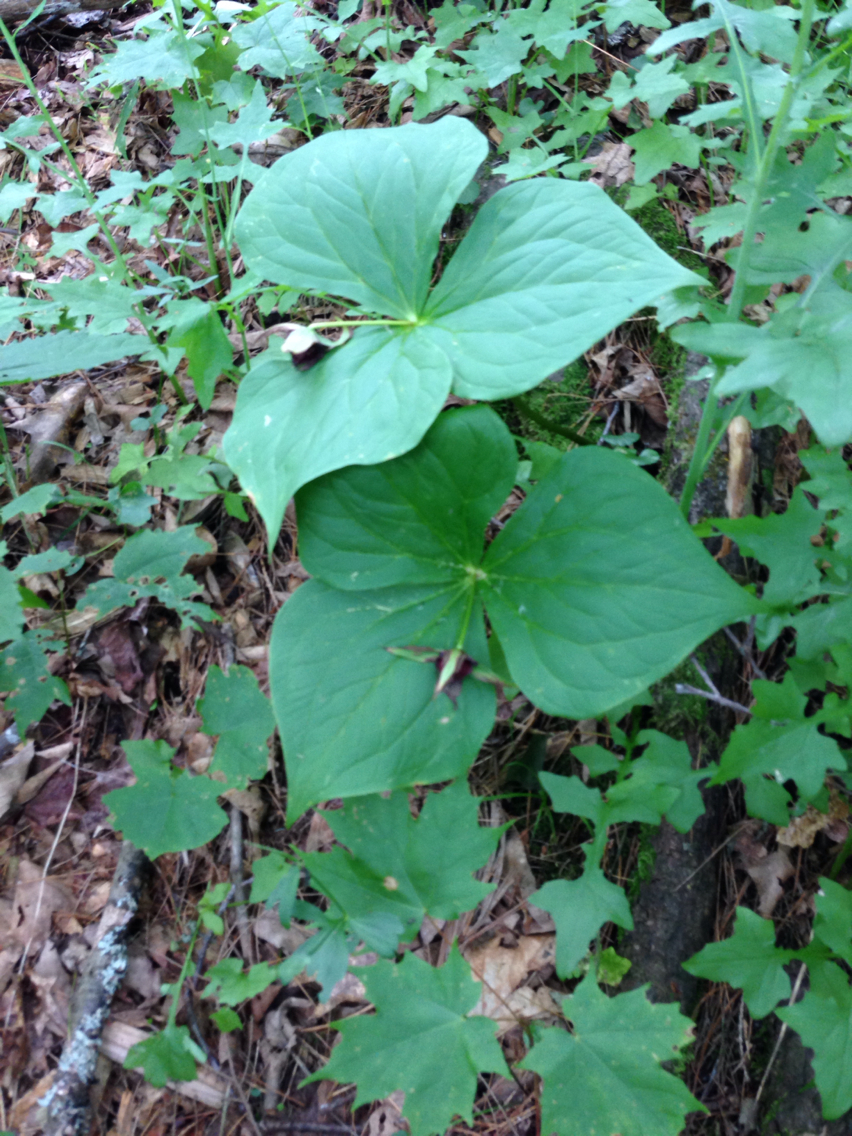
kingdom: Plantae
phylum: Tracheophyta
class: Liliopsida
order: Liliales
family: Melanthiaceae
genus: Trillium
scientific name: Trillium erectum
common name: Purple trillium
